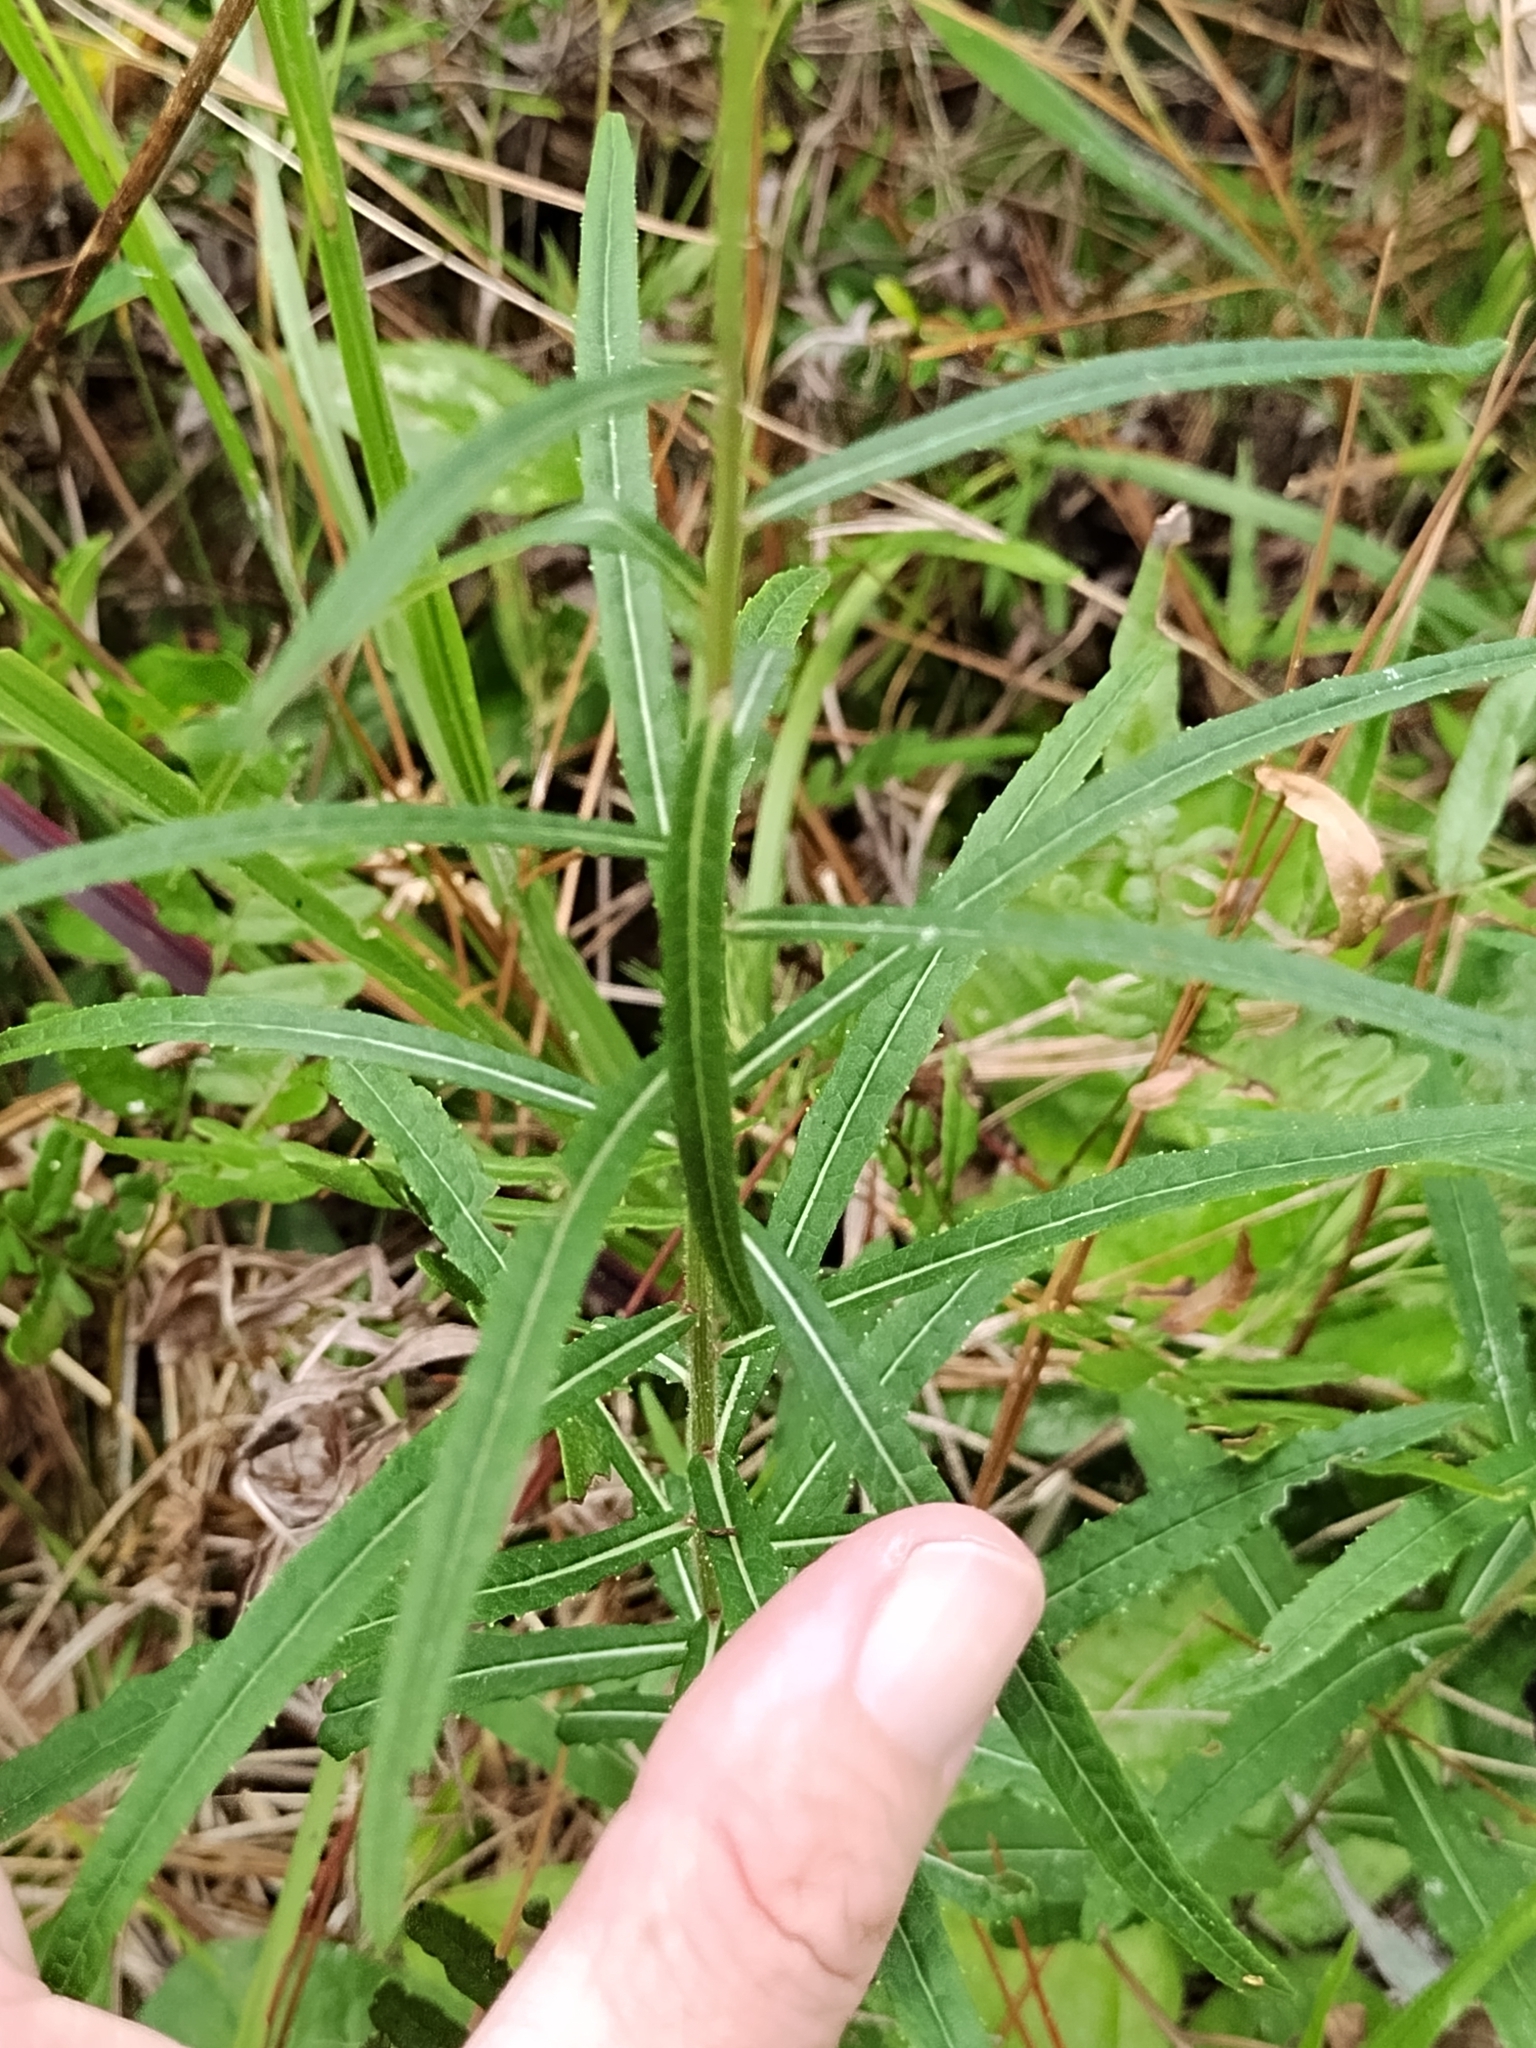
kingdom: Plantae
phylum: Tracheophyta
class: Magnoliopsida
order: Asterales
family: Asteraceae
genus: Vernonia
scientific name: Vernonia angustifolia
